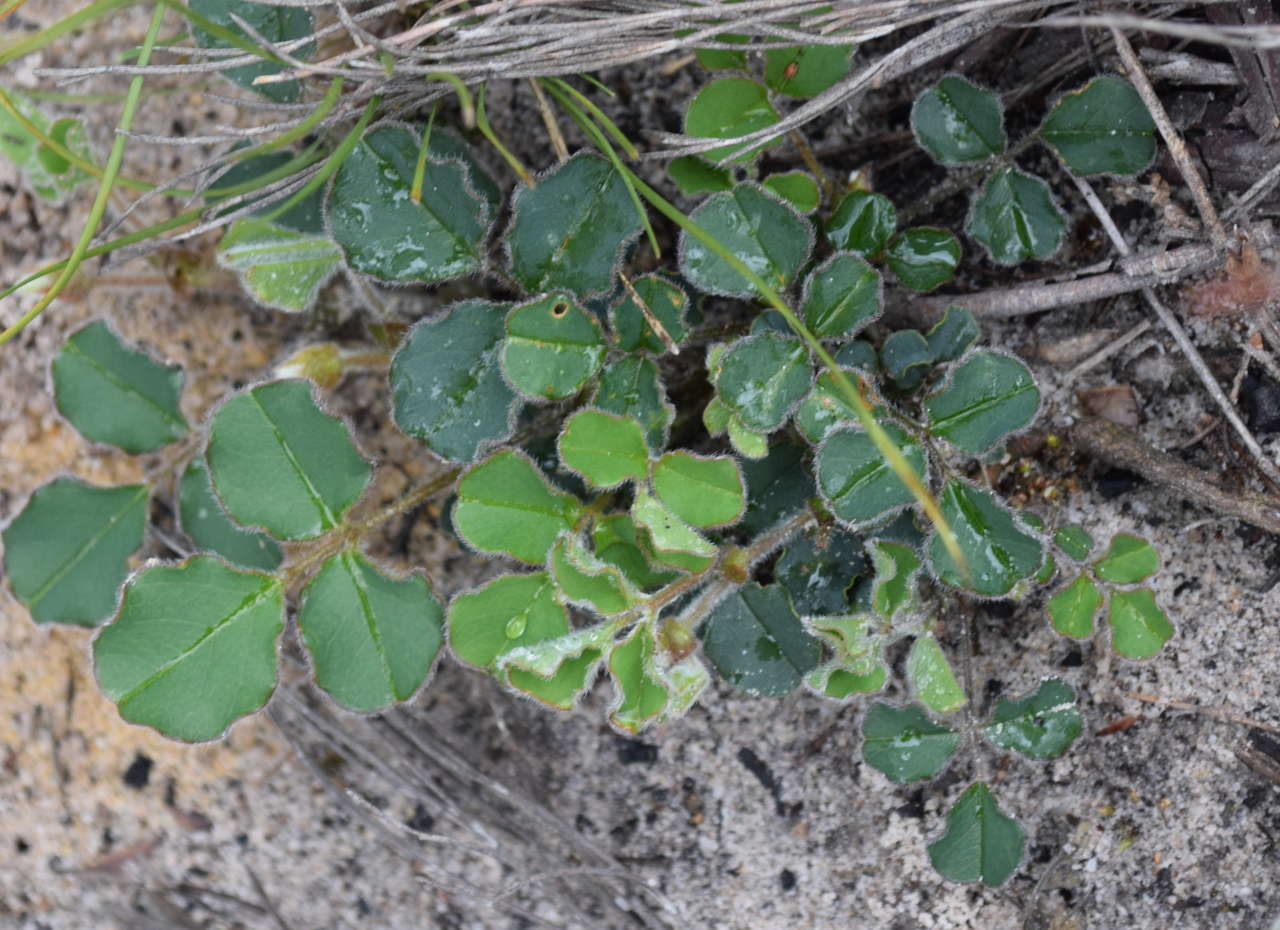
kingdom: Plantae
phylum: Tracheophyta
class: Magnoliopsida
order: Fabales
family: Fabaceae
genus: Kennedia
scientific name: Kennedia prostrata
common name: Running-postman
